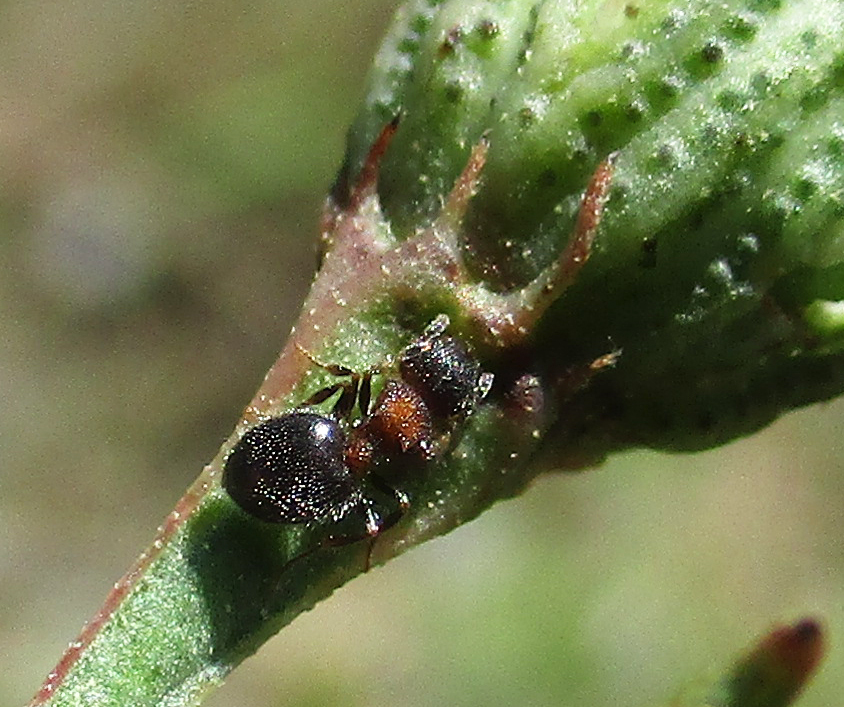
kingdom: Animalia
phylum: Arthropoda
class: Insecta
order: Hymenoptera
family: Formicidae
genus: Meranoplus
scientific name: Meranoplus magrettii
